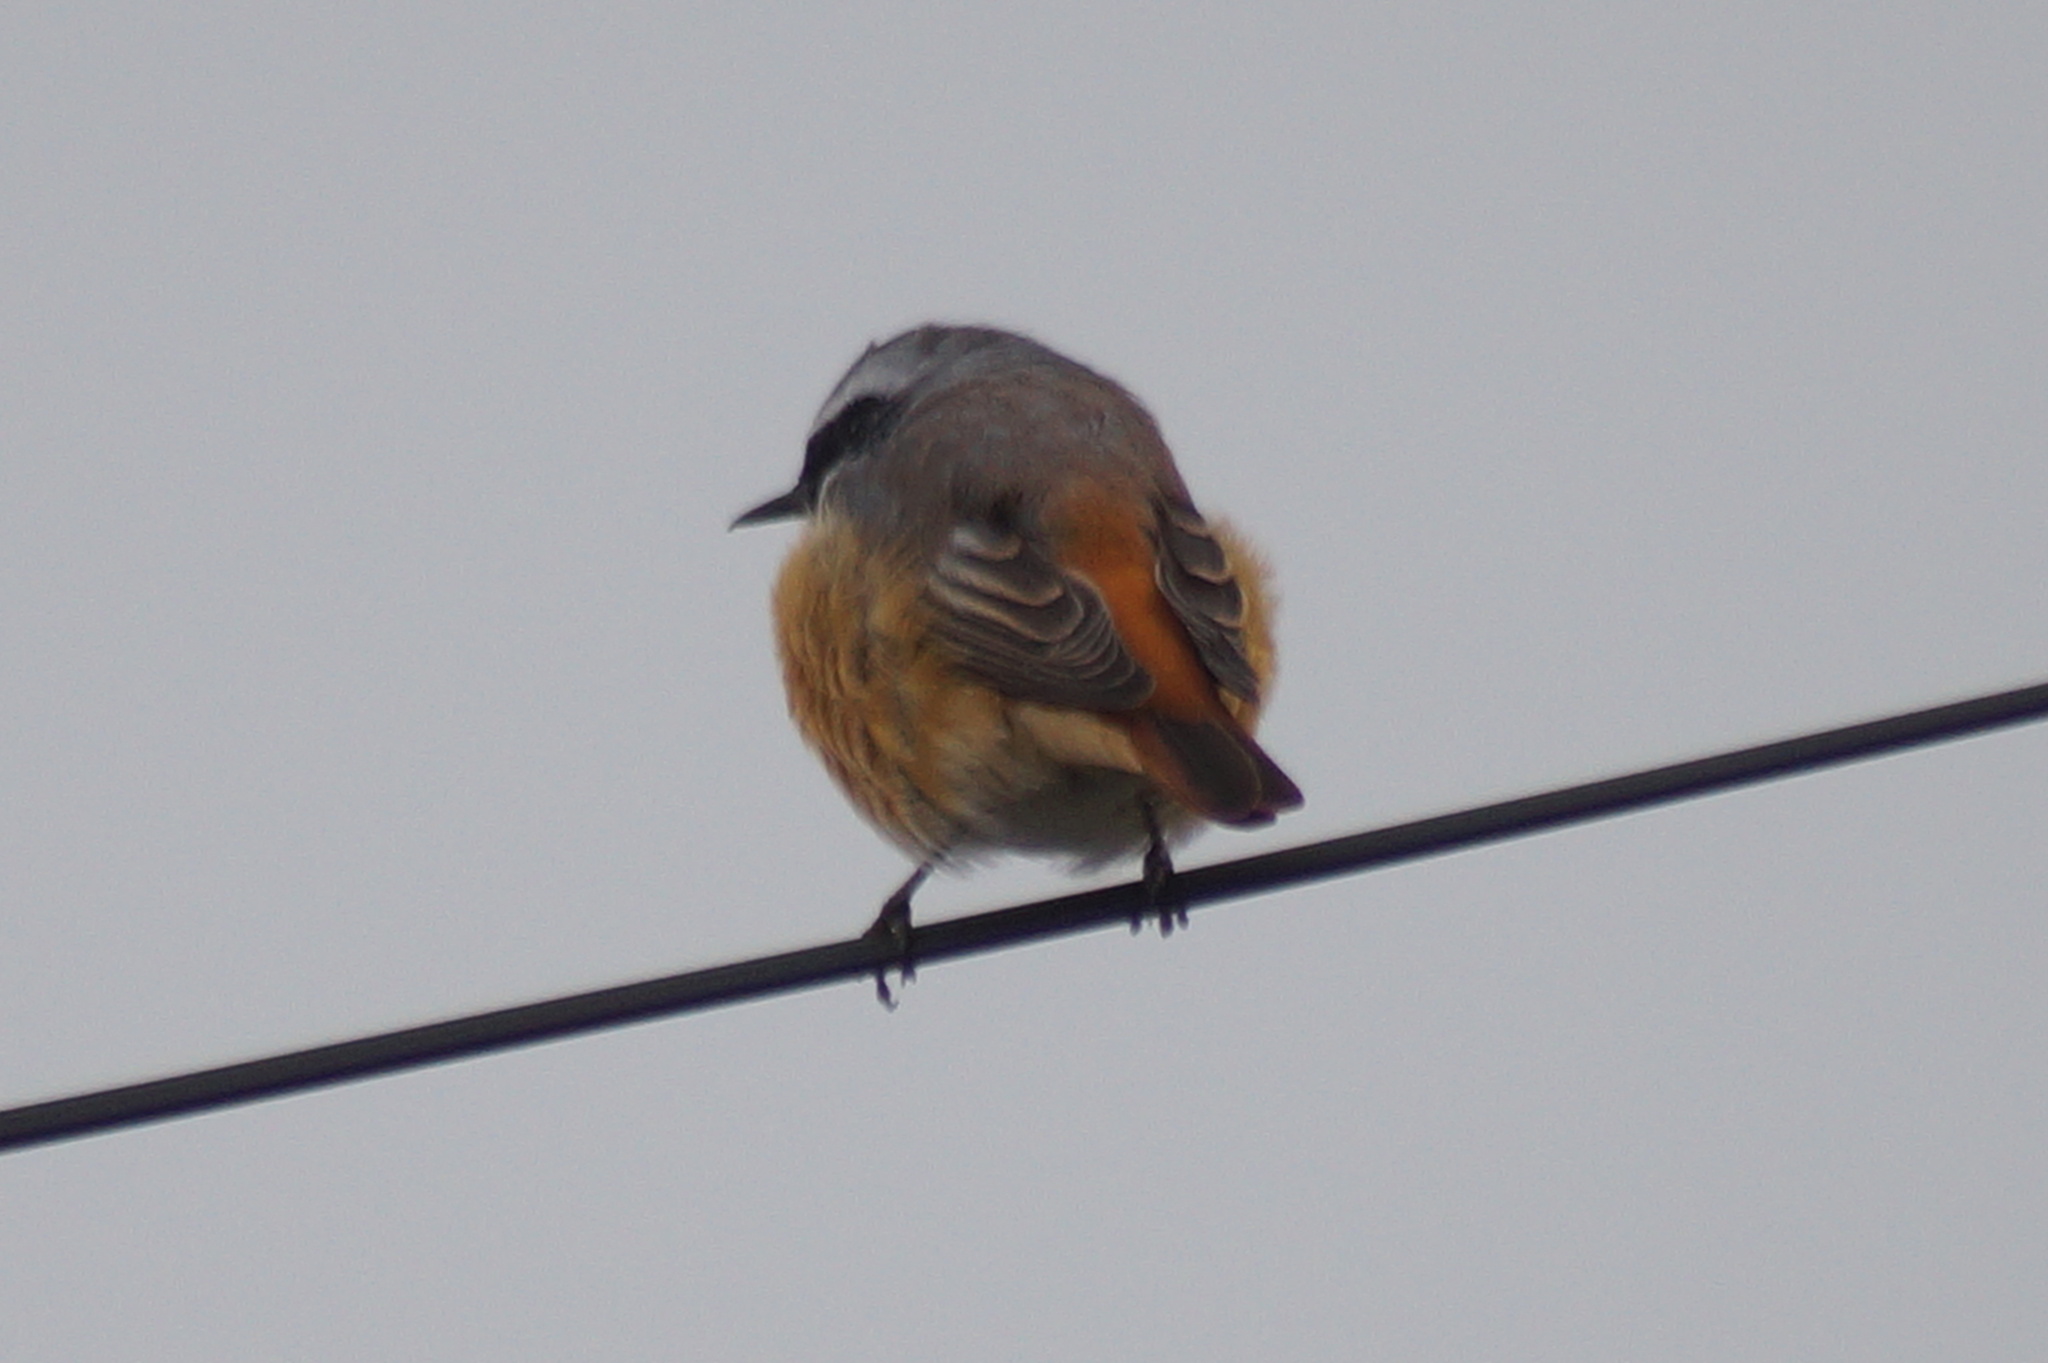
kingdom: Animalia
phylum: Chordata
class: Aves
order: Passeriformes
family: Muscicapidae
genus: Phoenicurus
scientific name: Phoenicurus phoenicurus
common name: Common redstart
